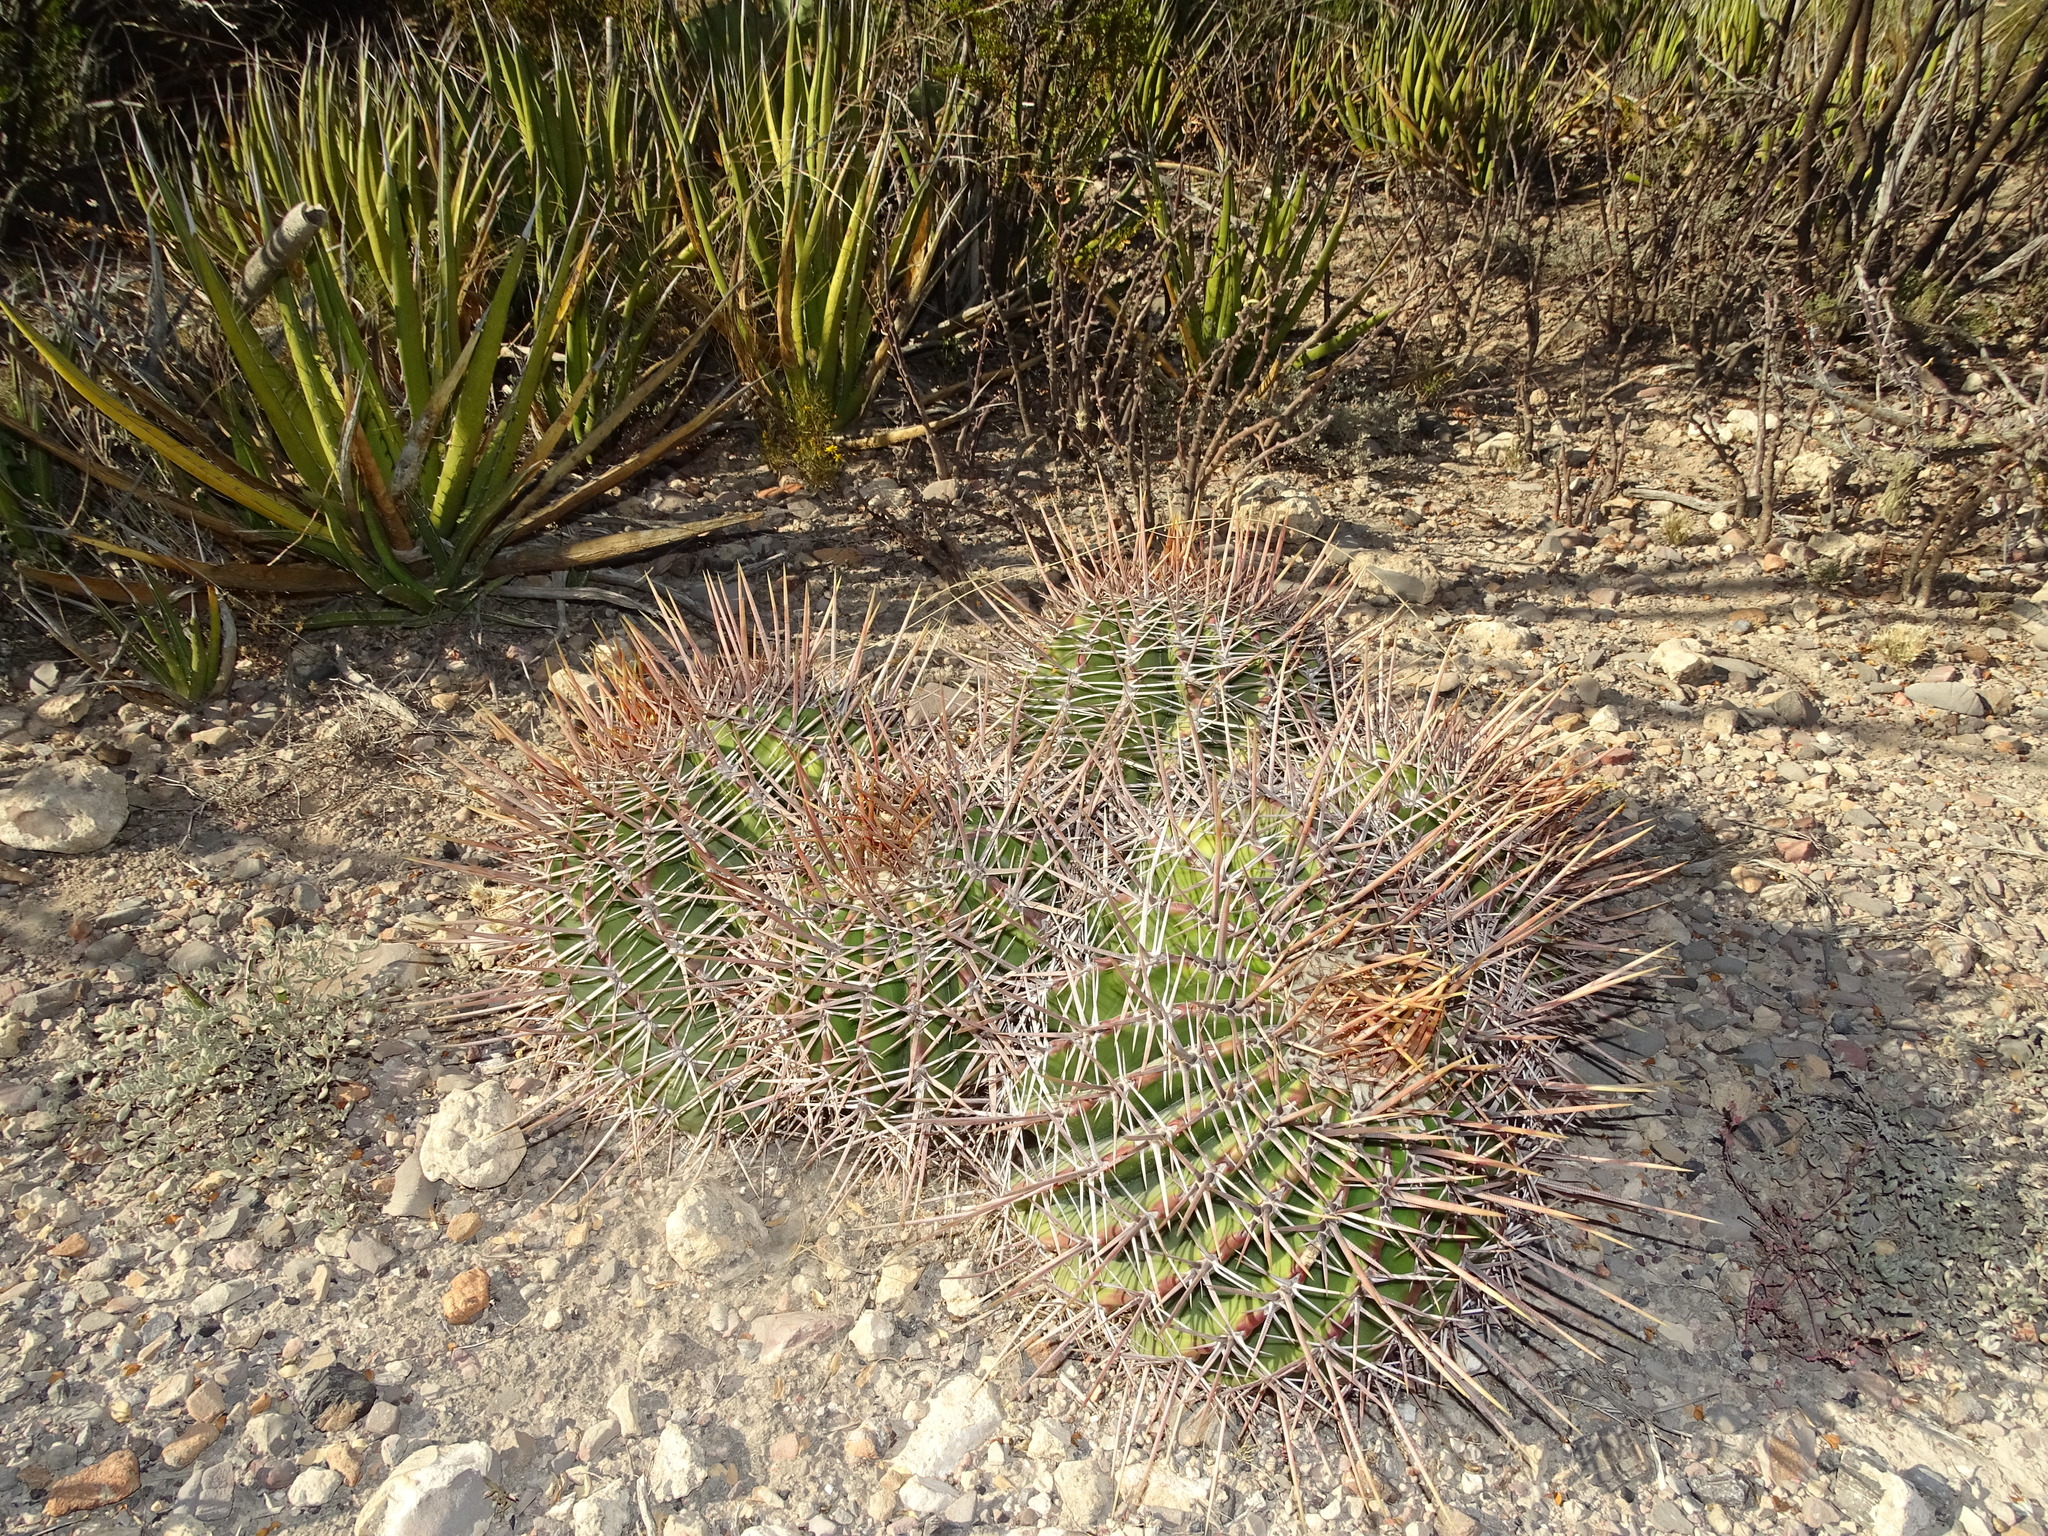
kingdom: Plantae
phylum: Tracheophyta
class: Magnoliopsida
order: Caryophyllales
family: Cactaceae
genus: Echinocactus
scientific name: Echinocactus platyacanthus
